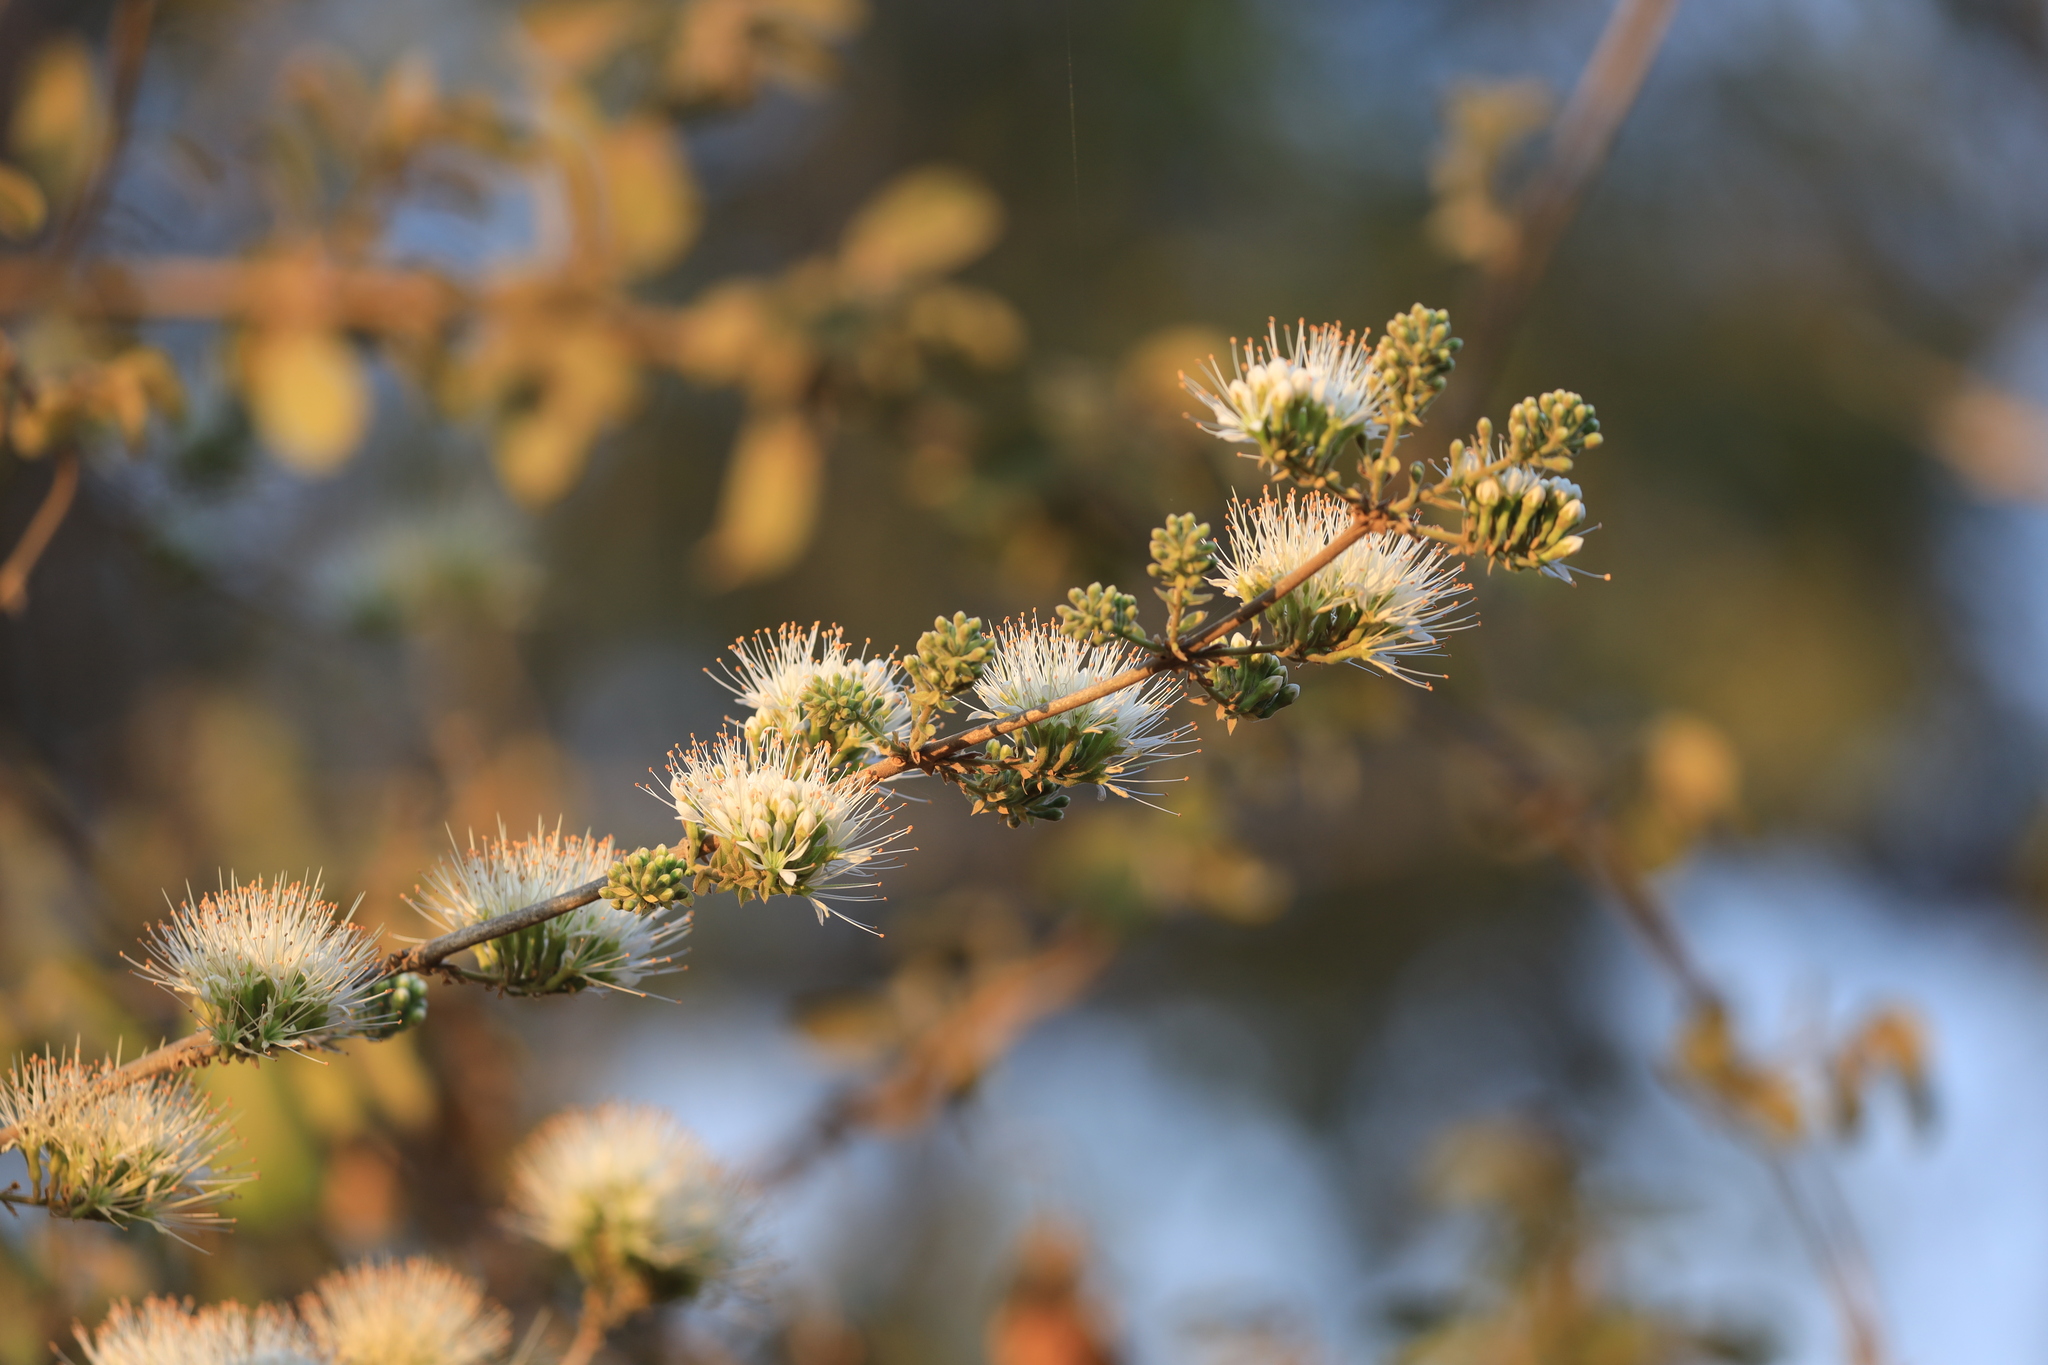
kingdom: Plantae
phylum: Tracheophyta
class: Magnoliopsida
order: Myrtales
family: Combretaceae
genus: Combretum
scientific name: Combretum mossambicense
